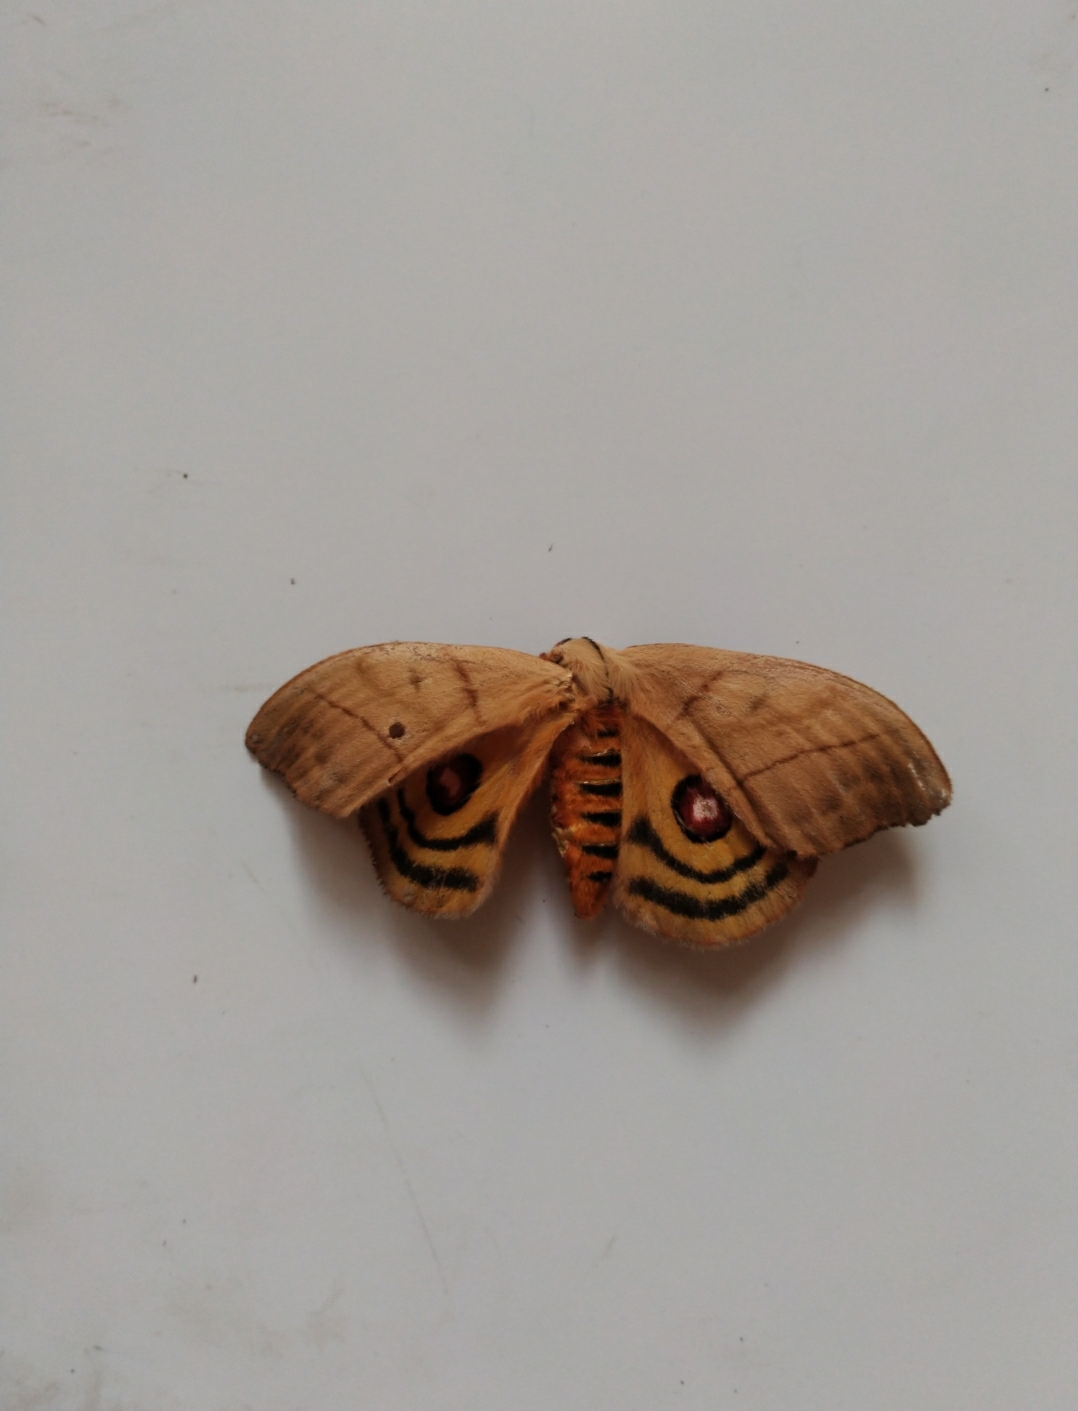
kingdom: Animalia
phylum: Arthropoda
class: Insecta
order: Lepidoptera
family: Saturniidae
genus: Hyperchiria
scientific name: Hyperchiria incisa
